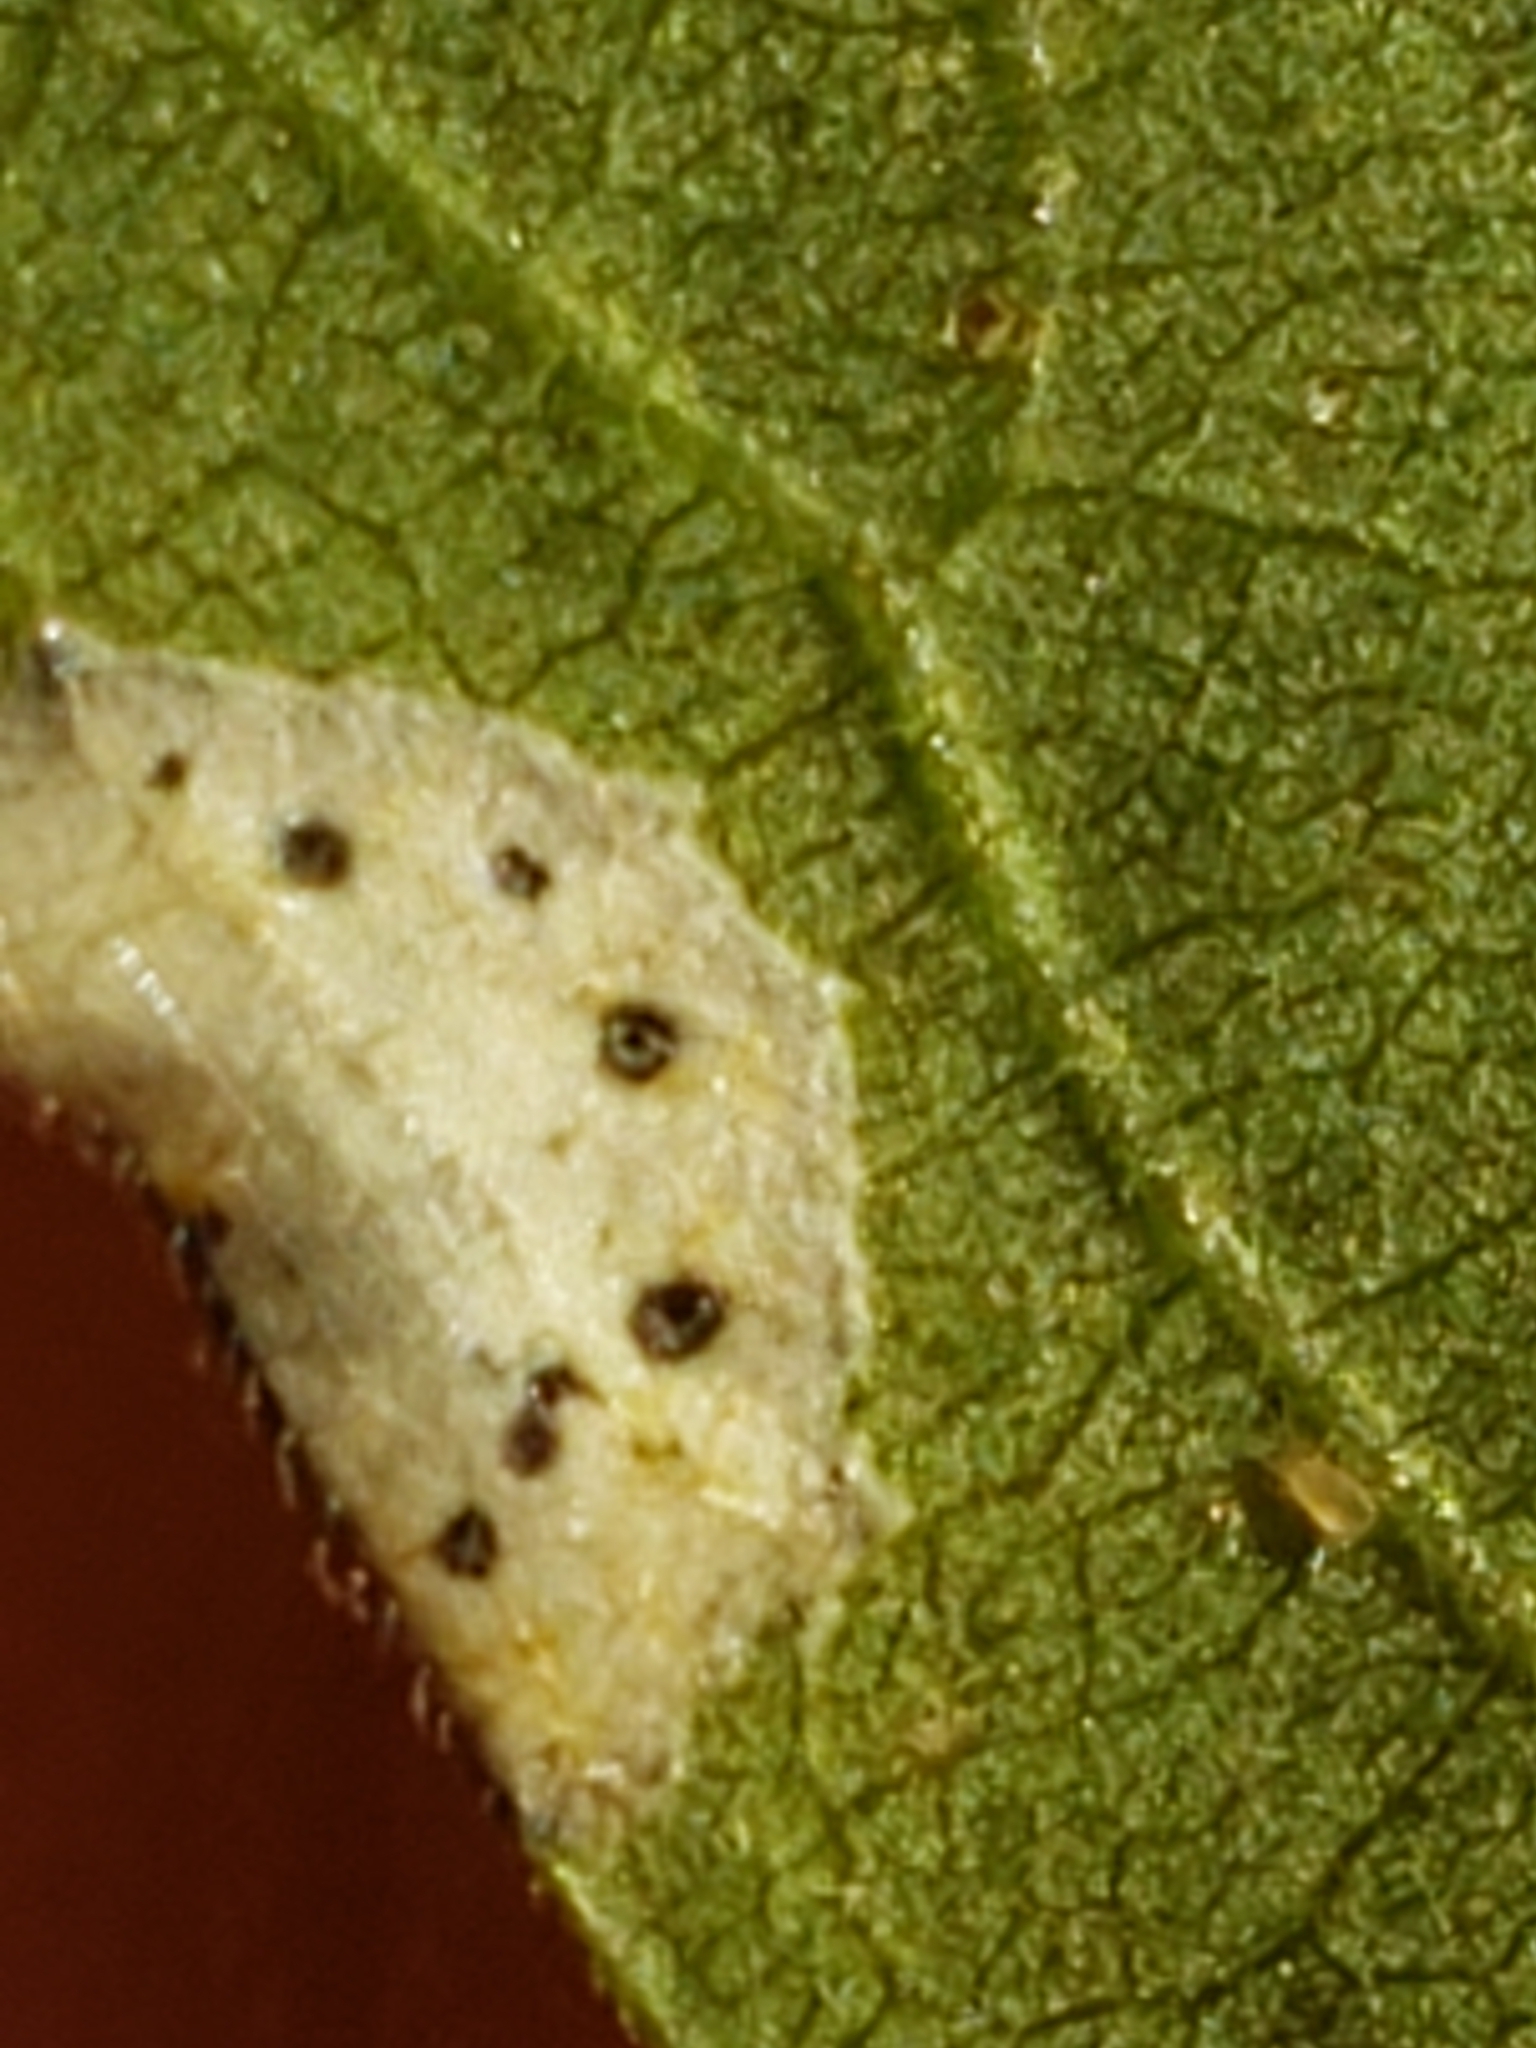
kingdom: Animalia
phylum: Arthropoda
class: Insecta
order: Diptera
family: Cecidomyiidae
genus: Asteromyia
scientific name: Asteromyia carbonifera
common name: Carbonifera goldenrod gall midge
